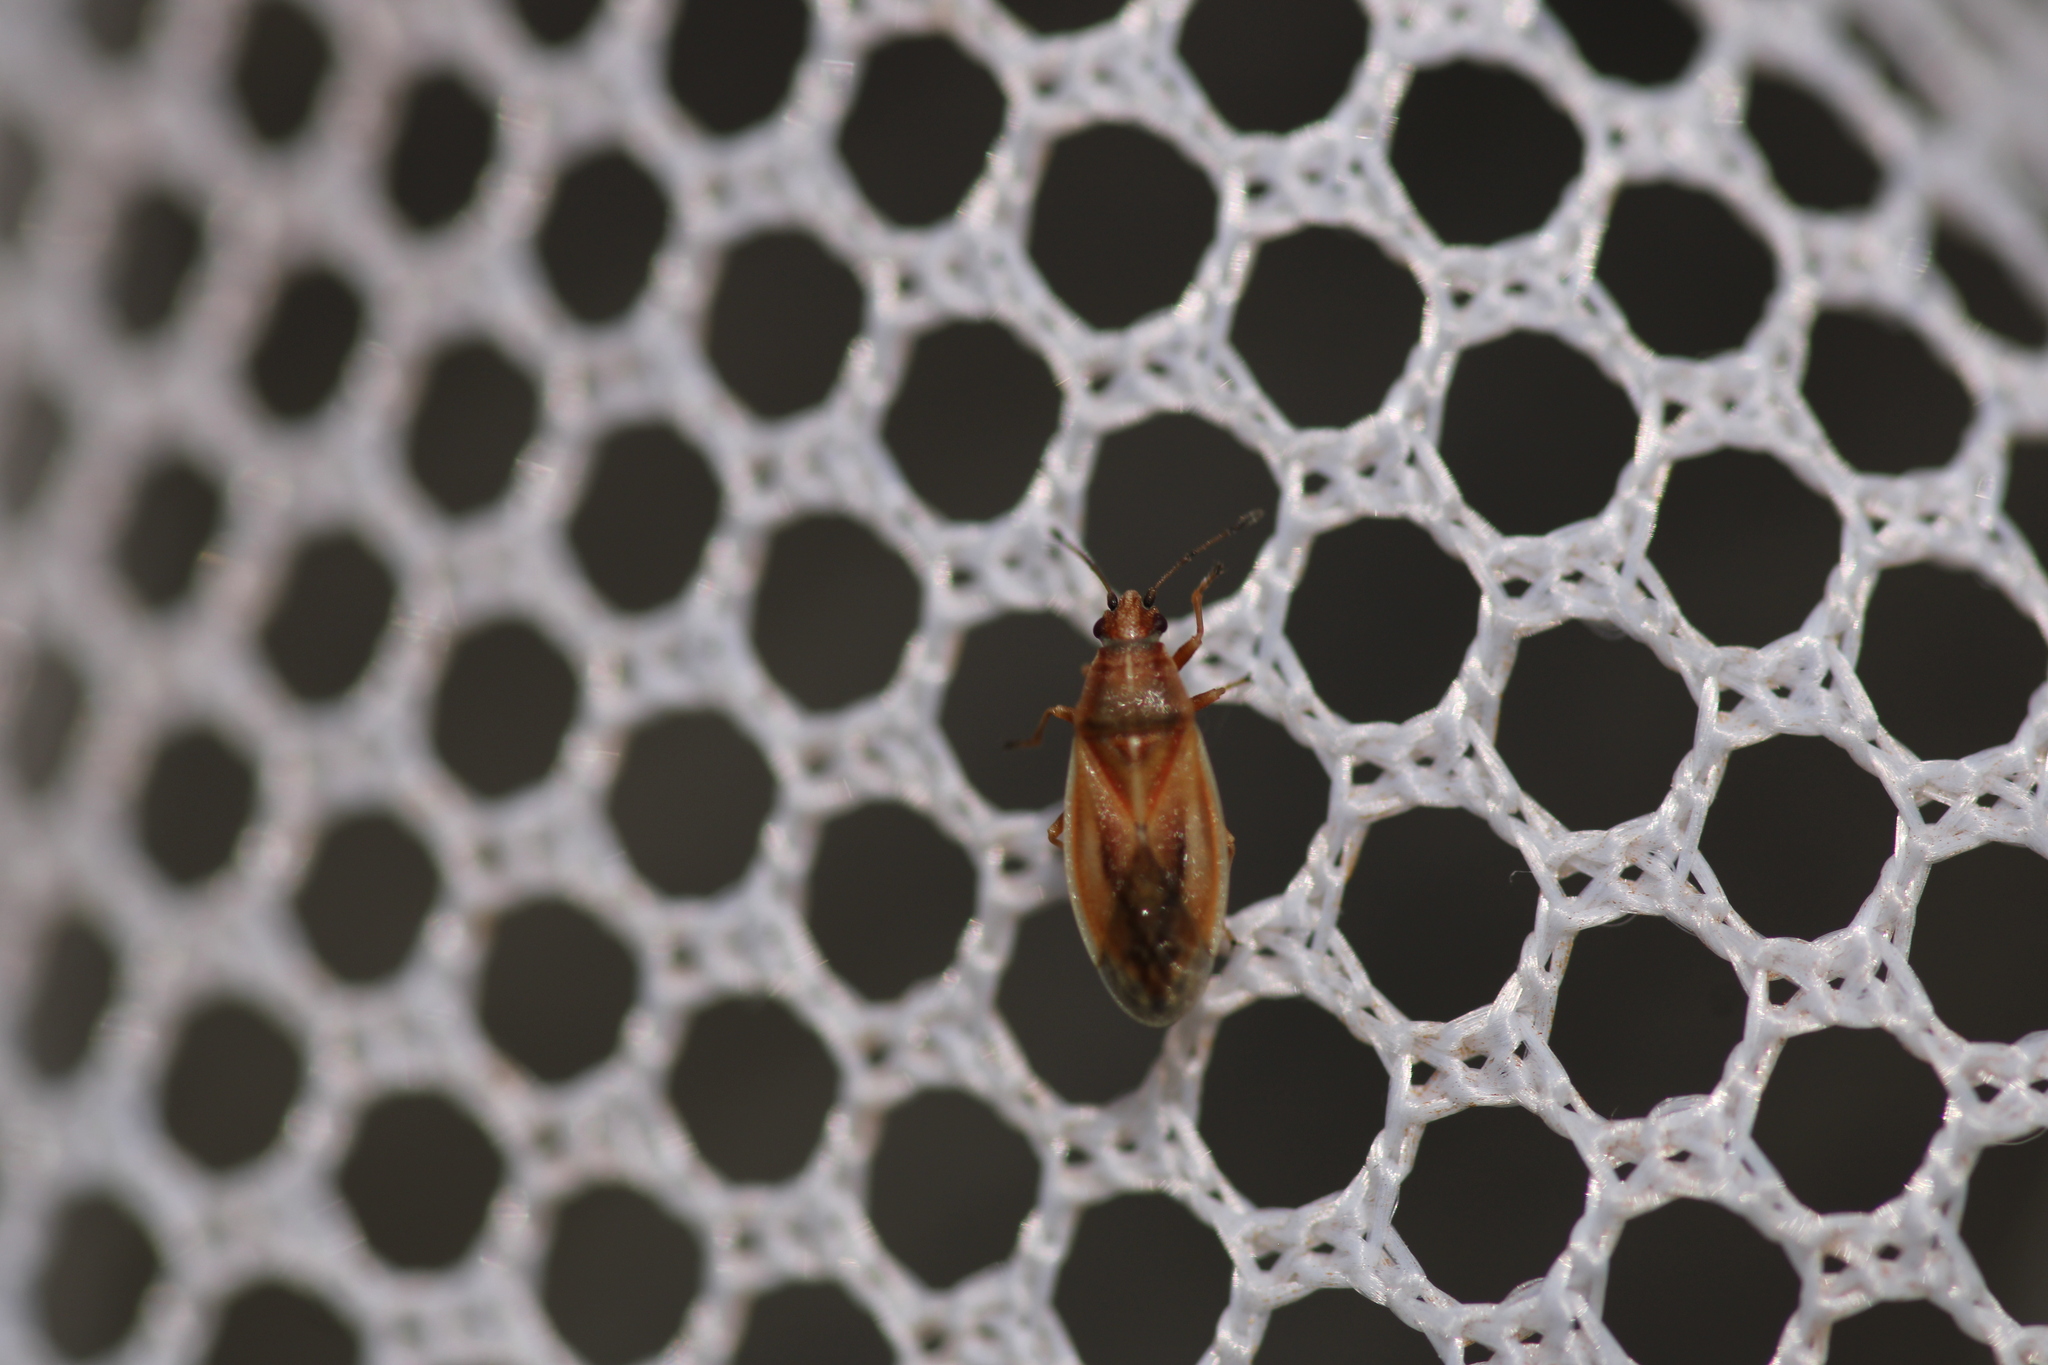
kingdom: Animalia
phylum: Arthropoda
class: Insecta
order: Hemiptera
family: Cymidae
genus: Cymus
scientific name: Cymus glandicolor
